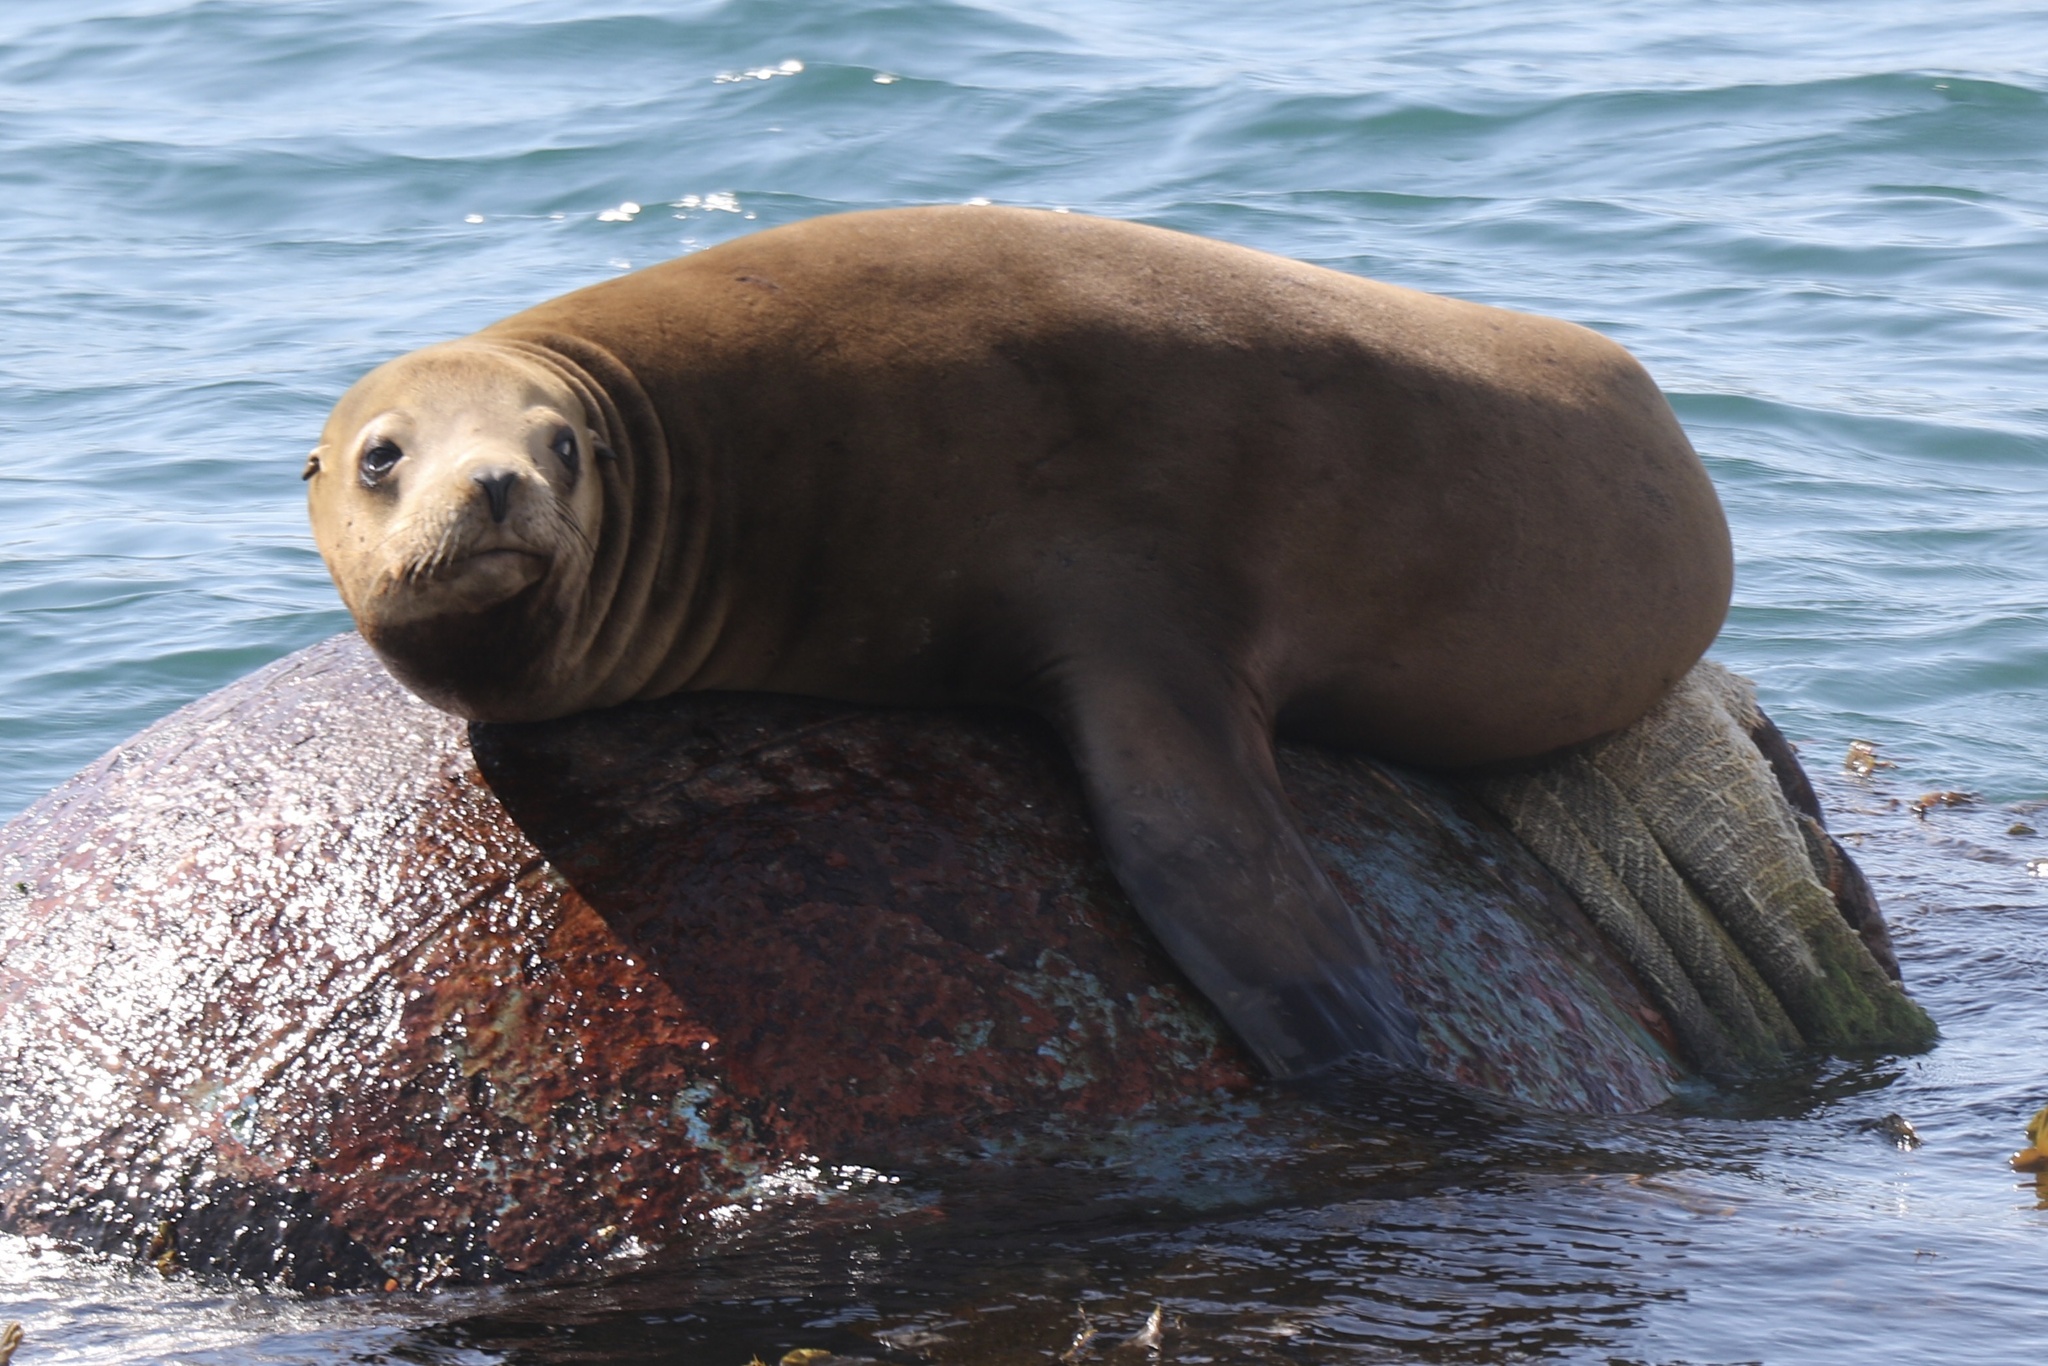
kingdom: Animalia
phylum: Chordata
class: Mammalia
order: Carnivora
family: Otariidae
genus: Zalophus
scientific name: Zalophus californianus
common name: California sea lion
